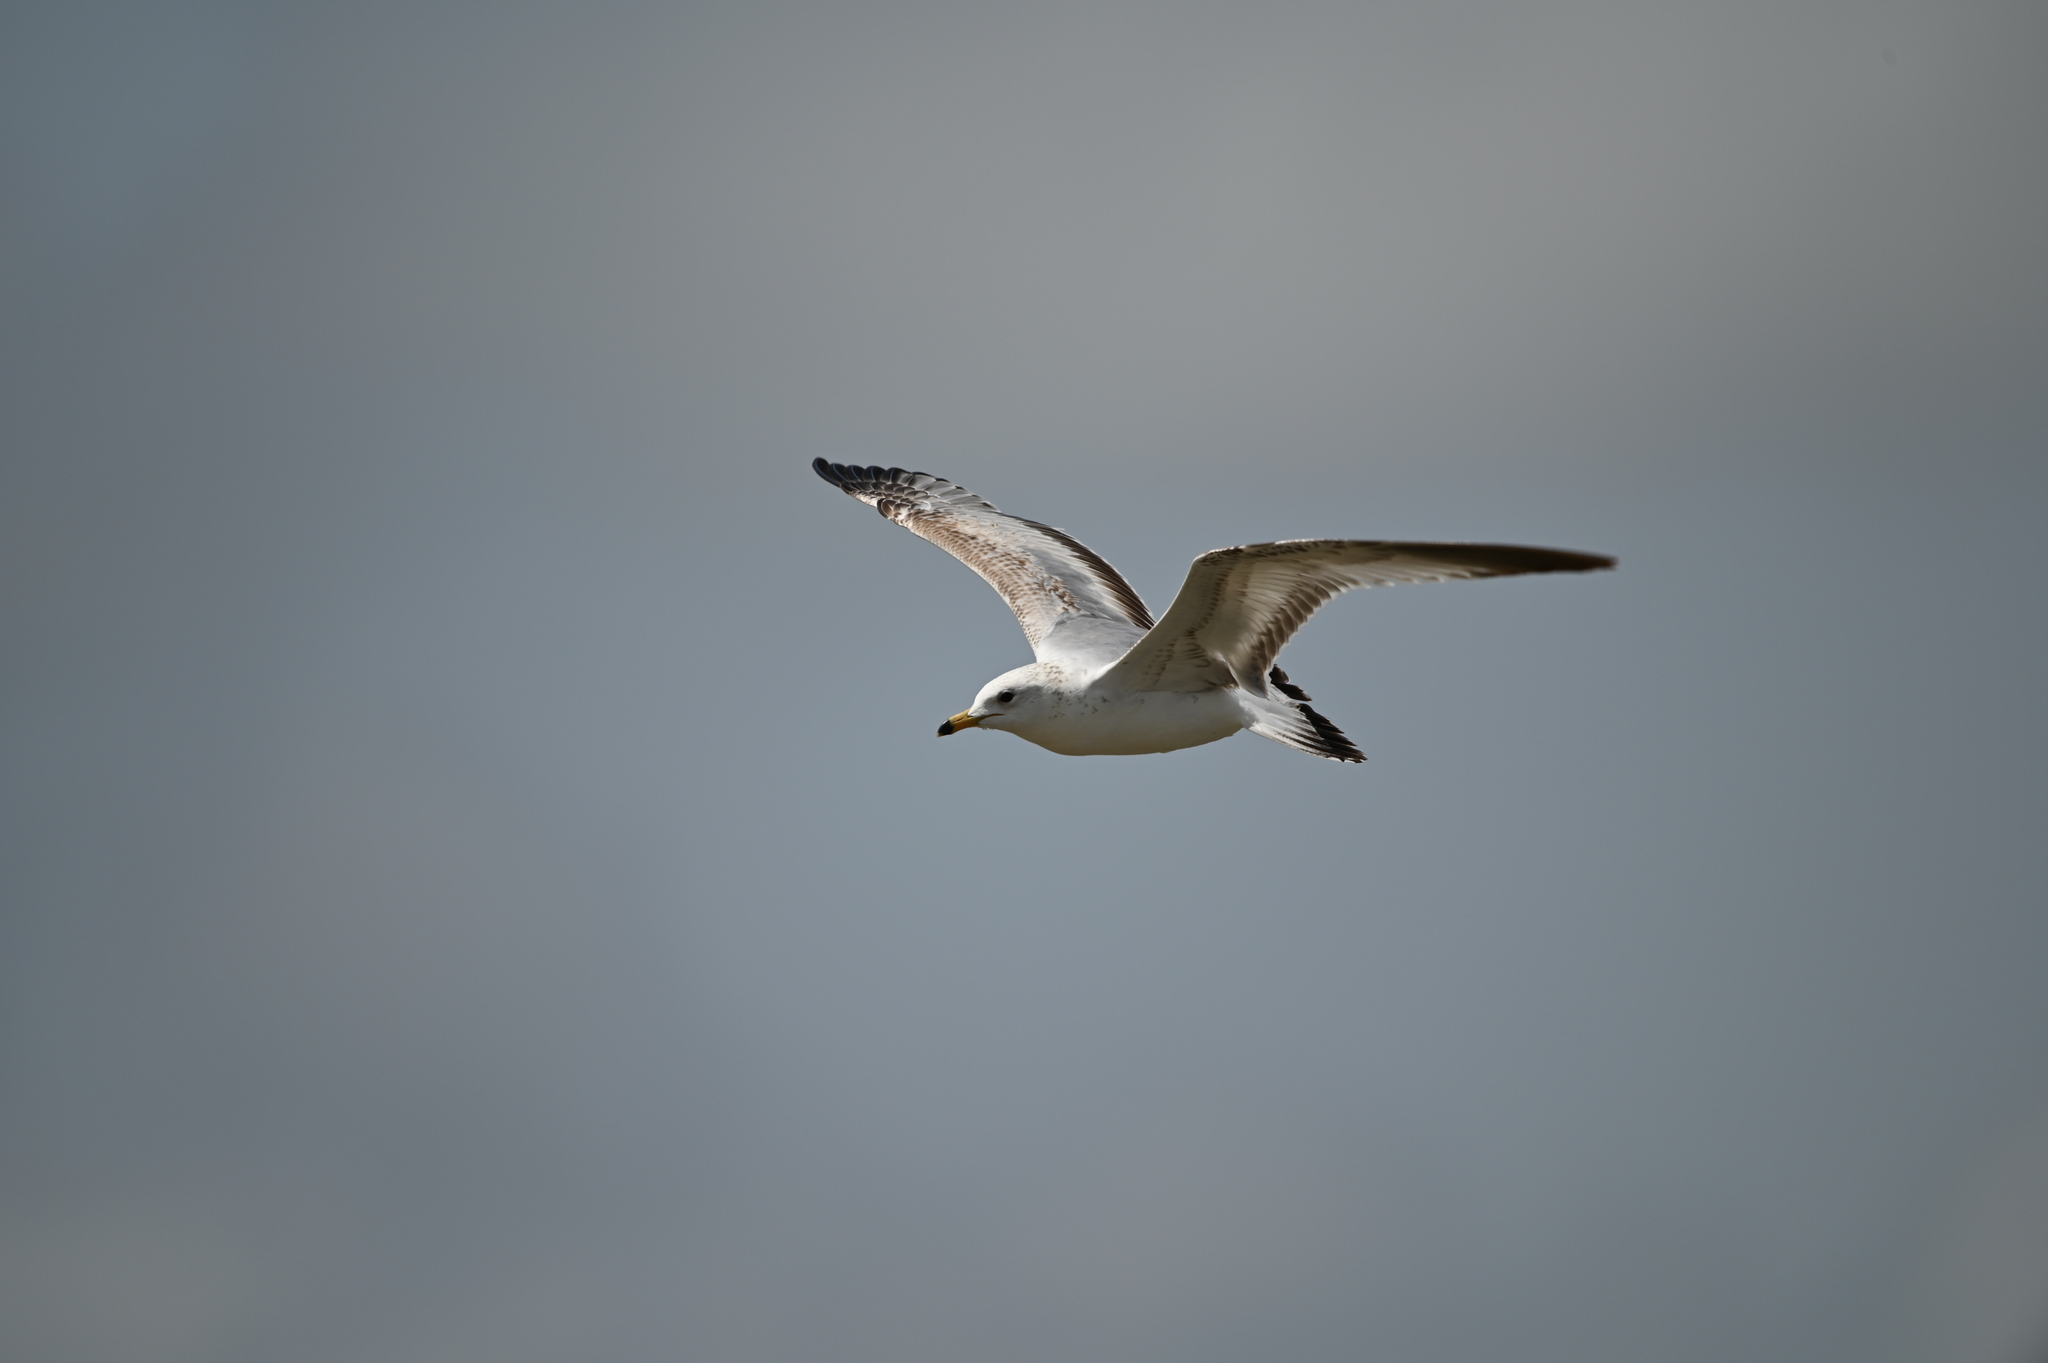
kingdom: Animalia
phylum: Chordata
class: Aves
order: Charadriiformes
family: Laridae
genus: Larus
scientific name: Larus delawarensis
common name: Ring-billed gull
